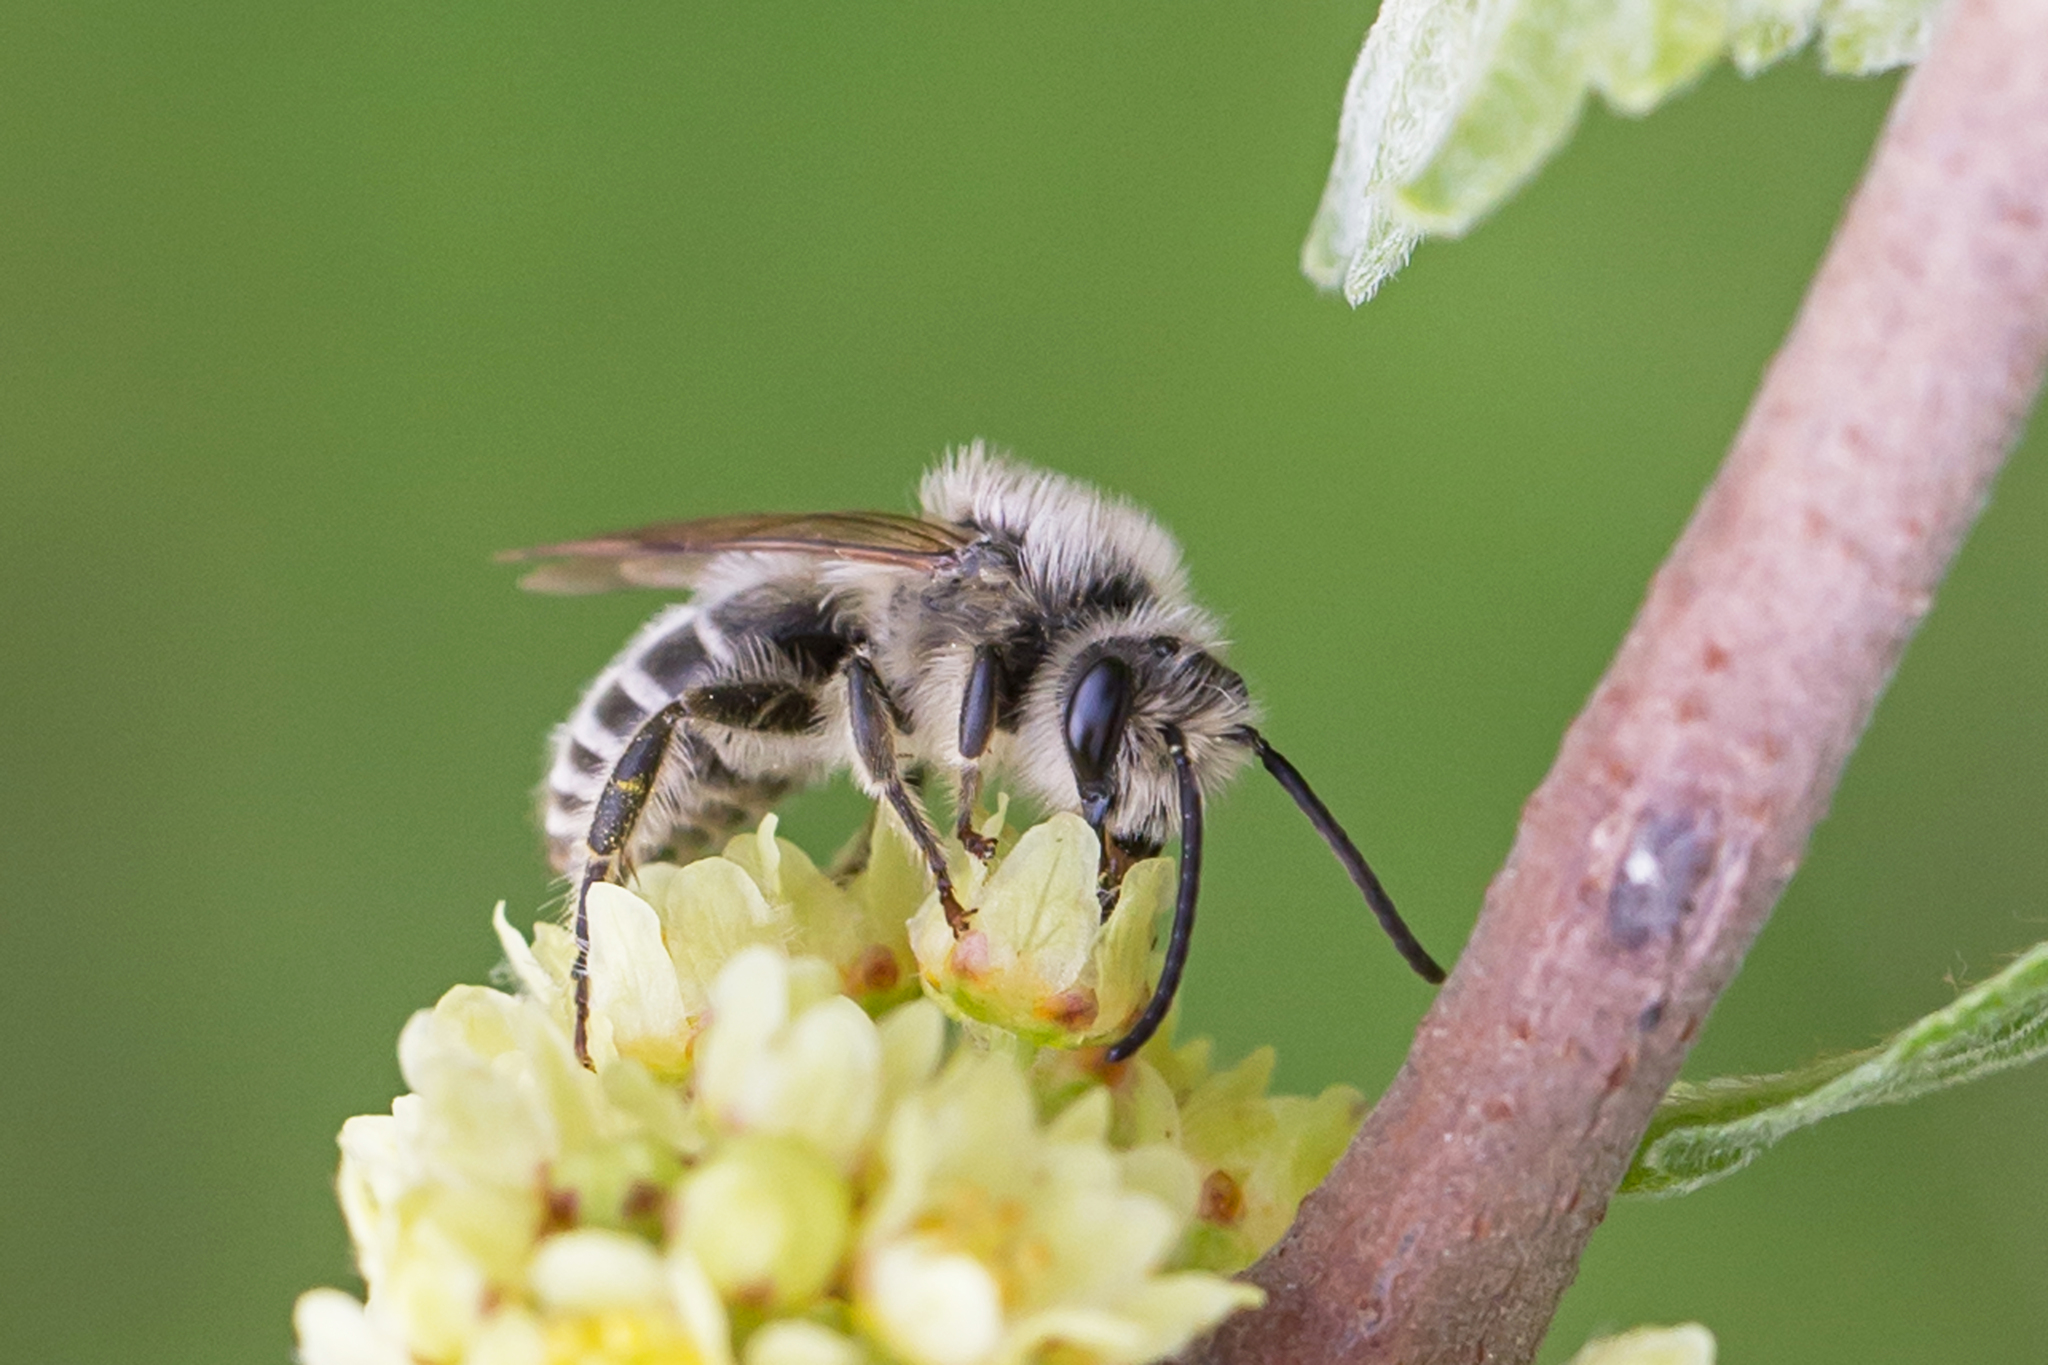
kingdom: Animalia
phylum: Arthropoda
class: Insecta
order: Hymenoptera
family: Colletidae
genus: Colletes
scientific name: Colletes inaequalis
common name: Unequal cellophane bee
